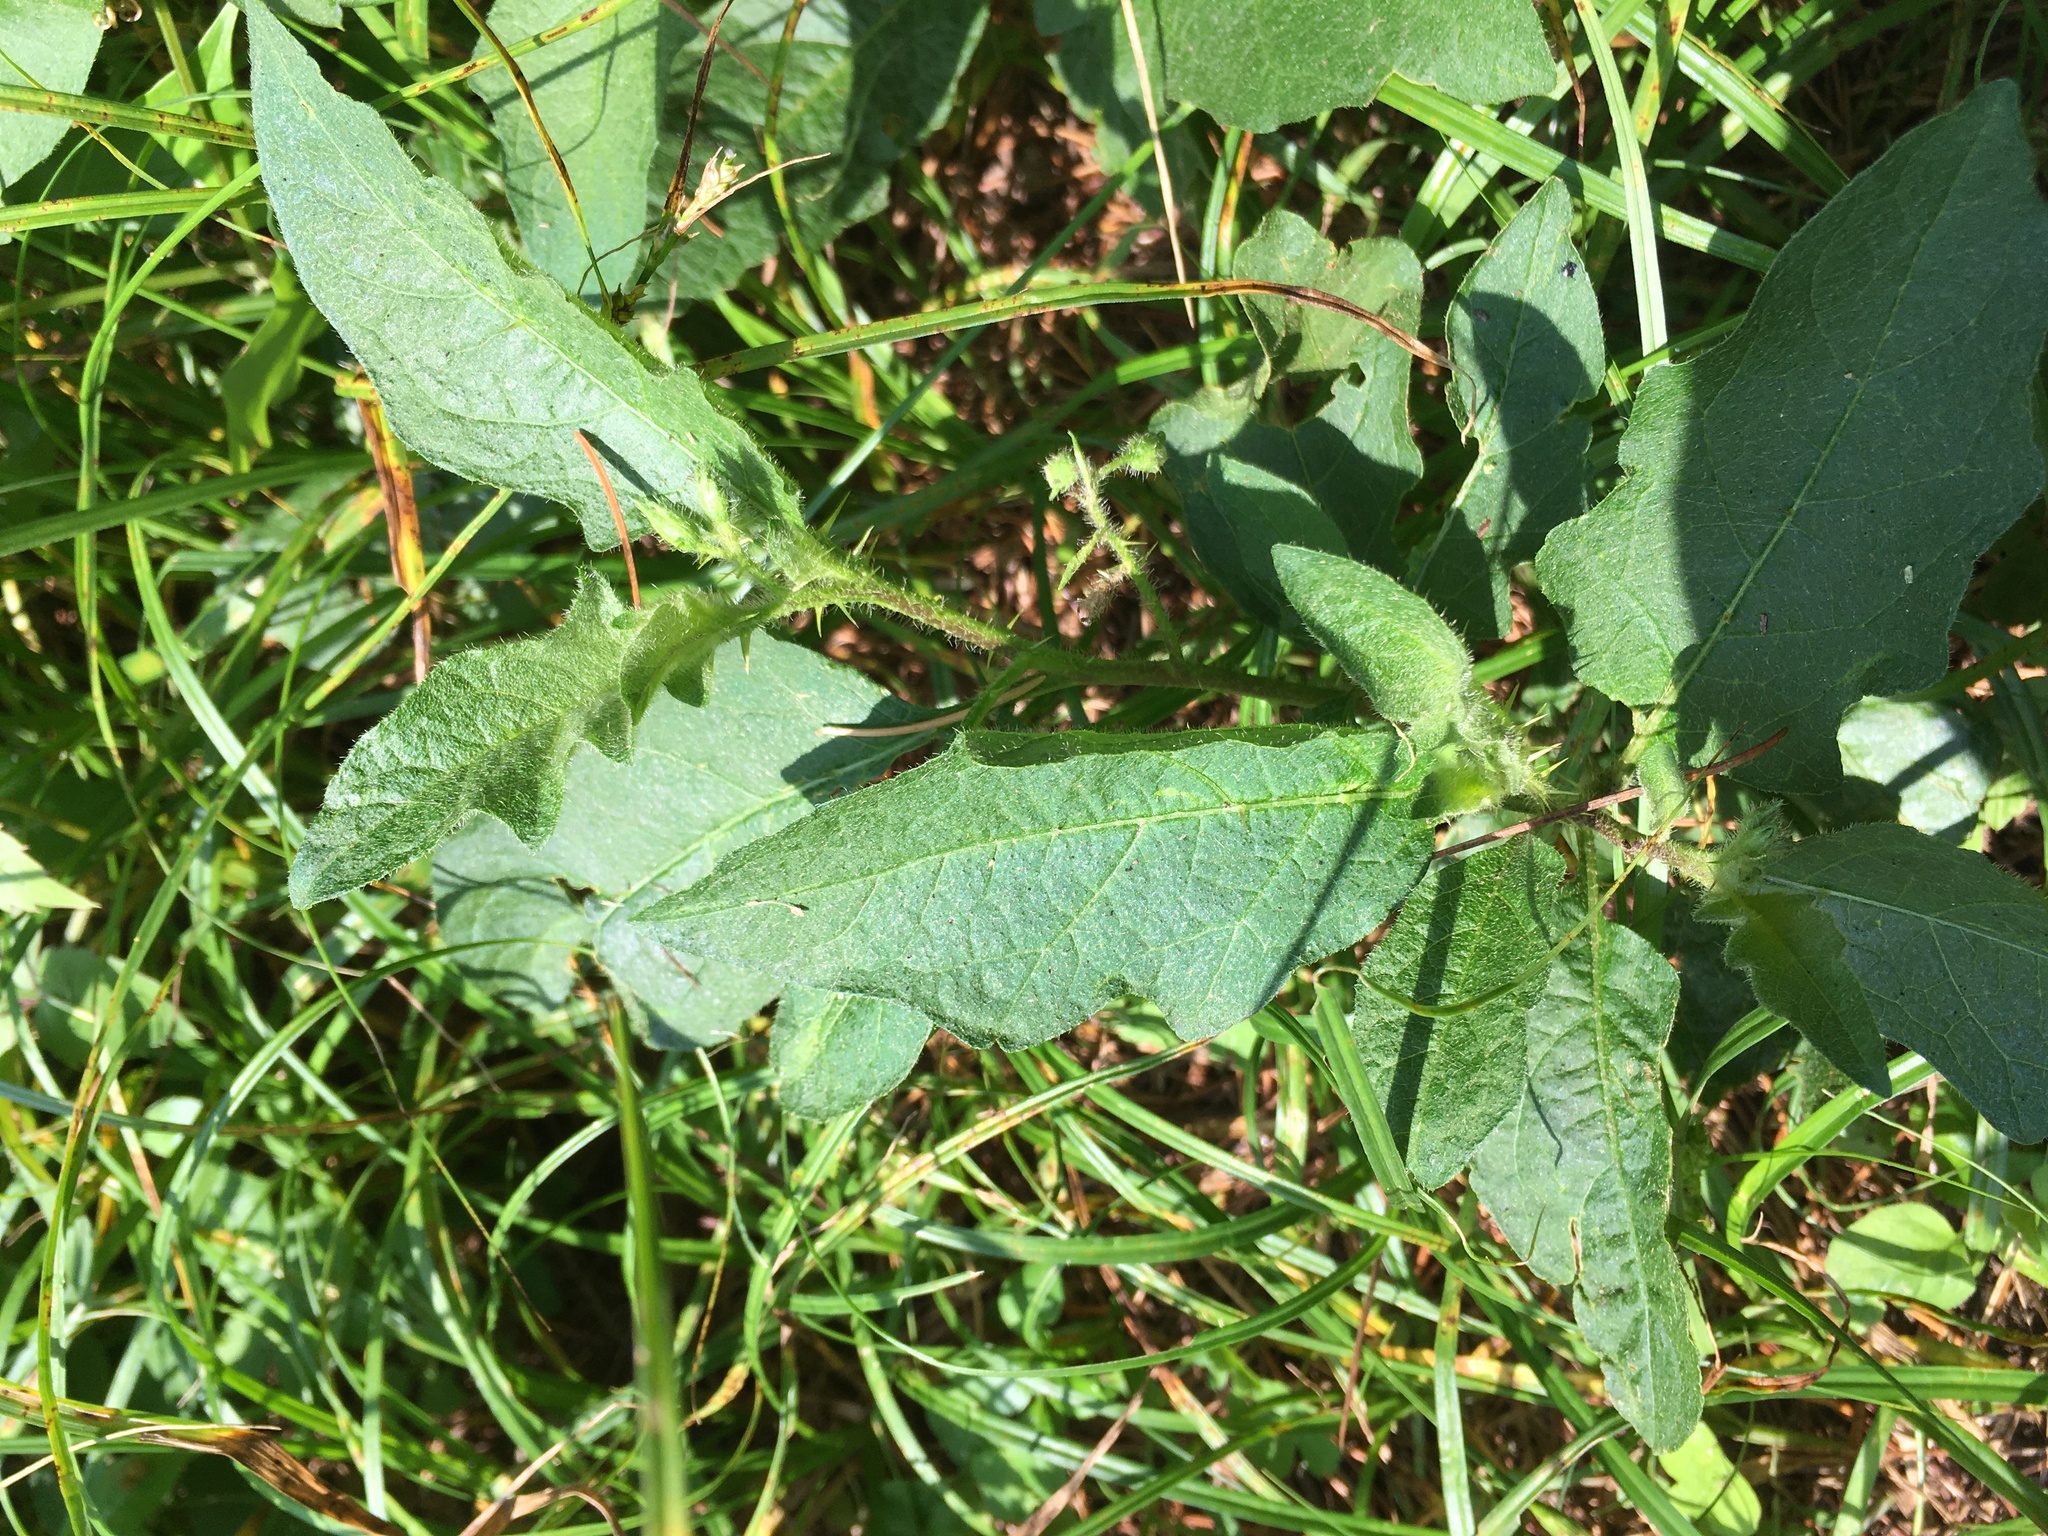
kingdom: Plantae
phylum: Tracheophyta
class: Magnoliopsida
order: Solanales
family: Solanaceae
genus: Solanum
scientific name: Solanum carolinense
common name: Horse-nettle
